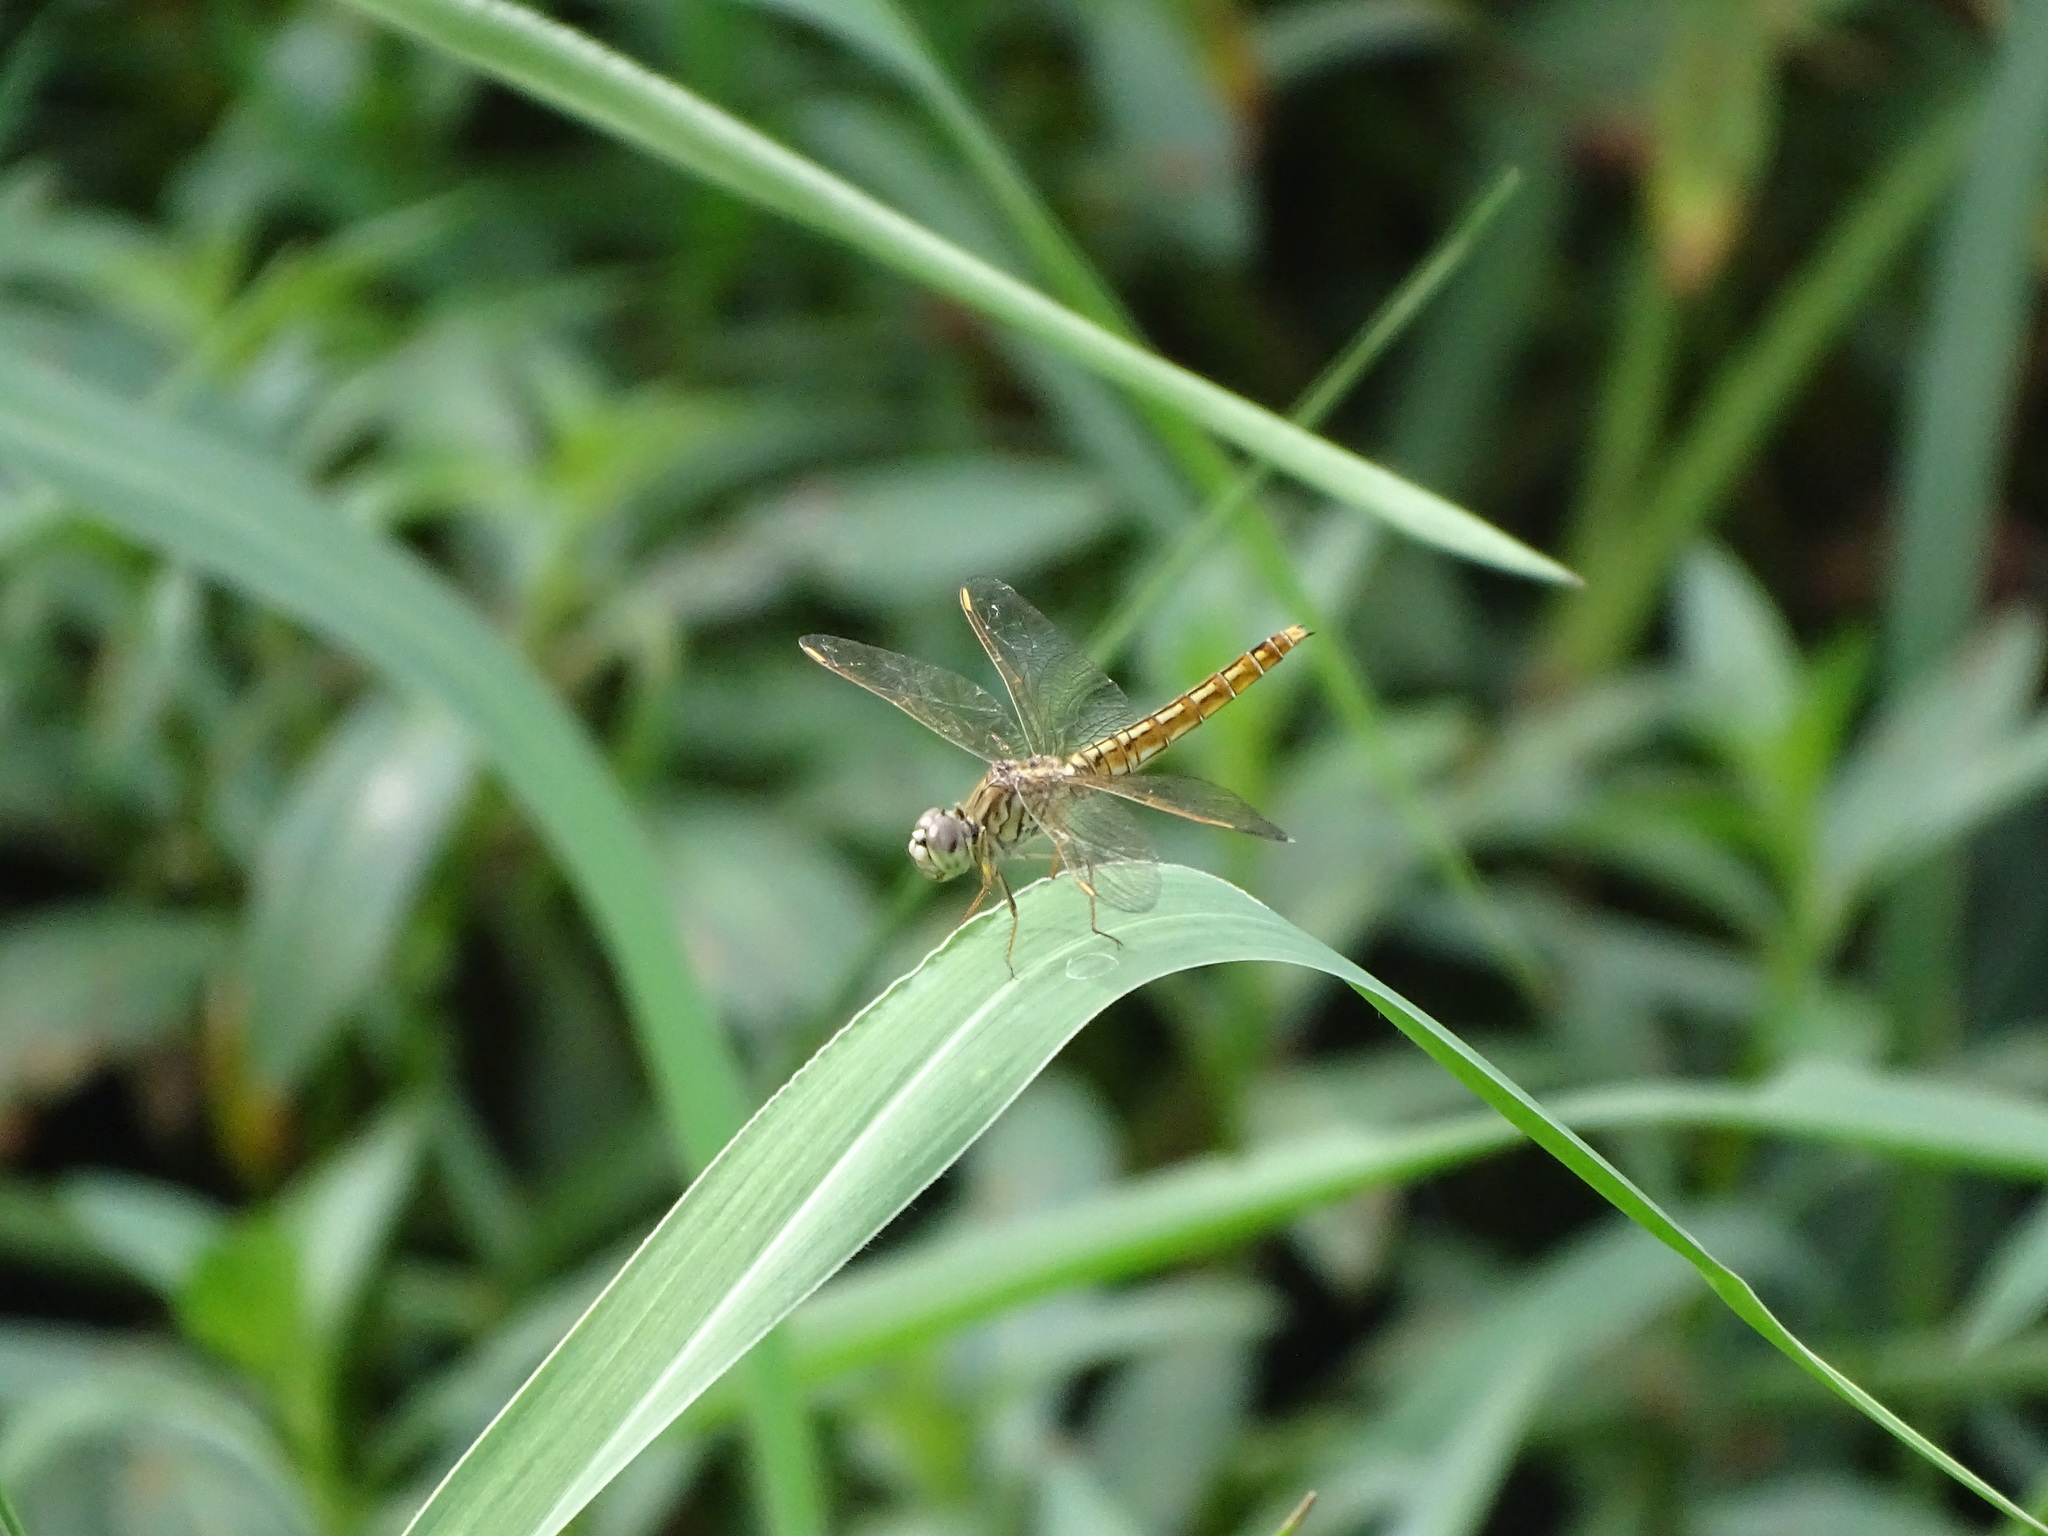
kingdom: Animalia
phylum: Arthropoda
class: Insecta
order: Odonata
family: Libellulidae
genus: Brachythemis
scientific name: Brachythemis contaminata
